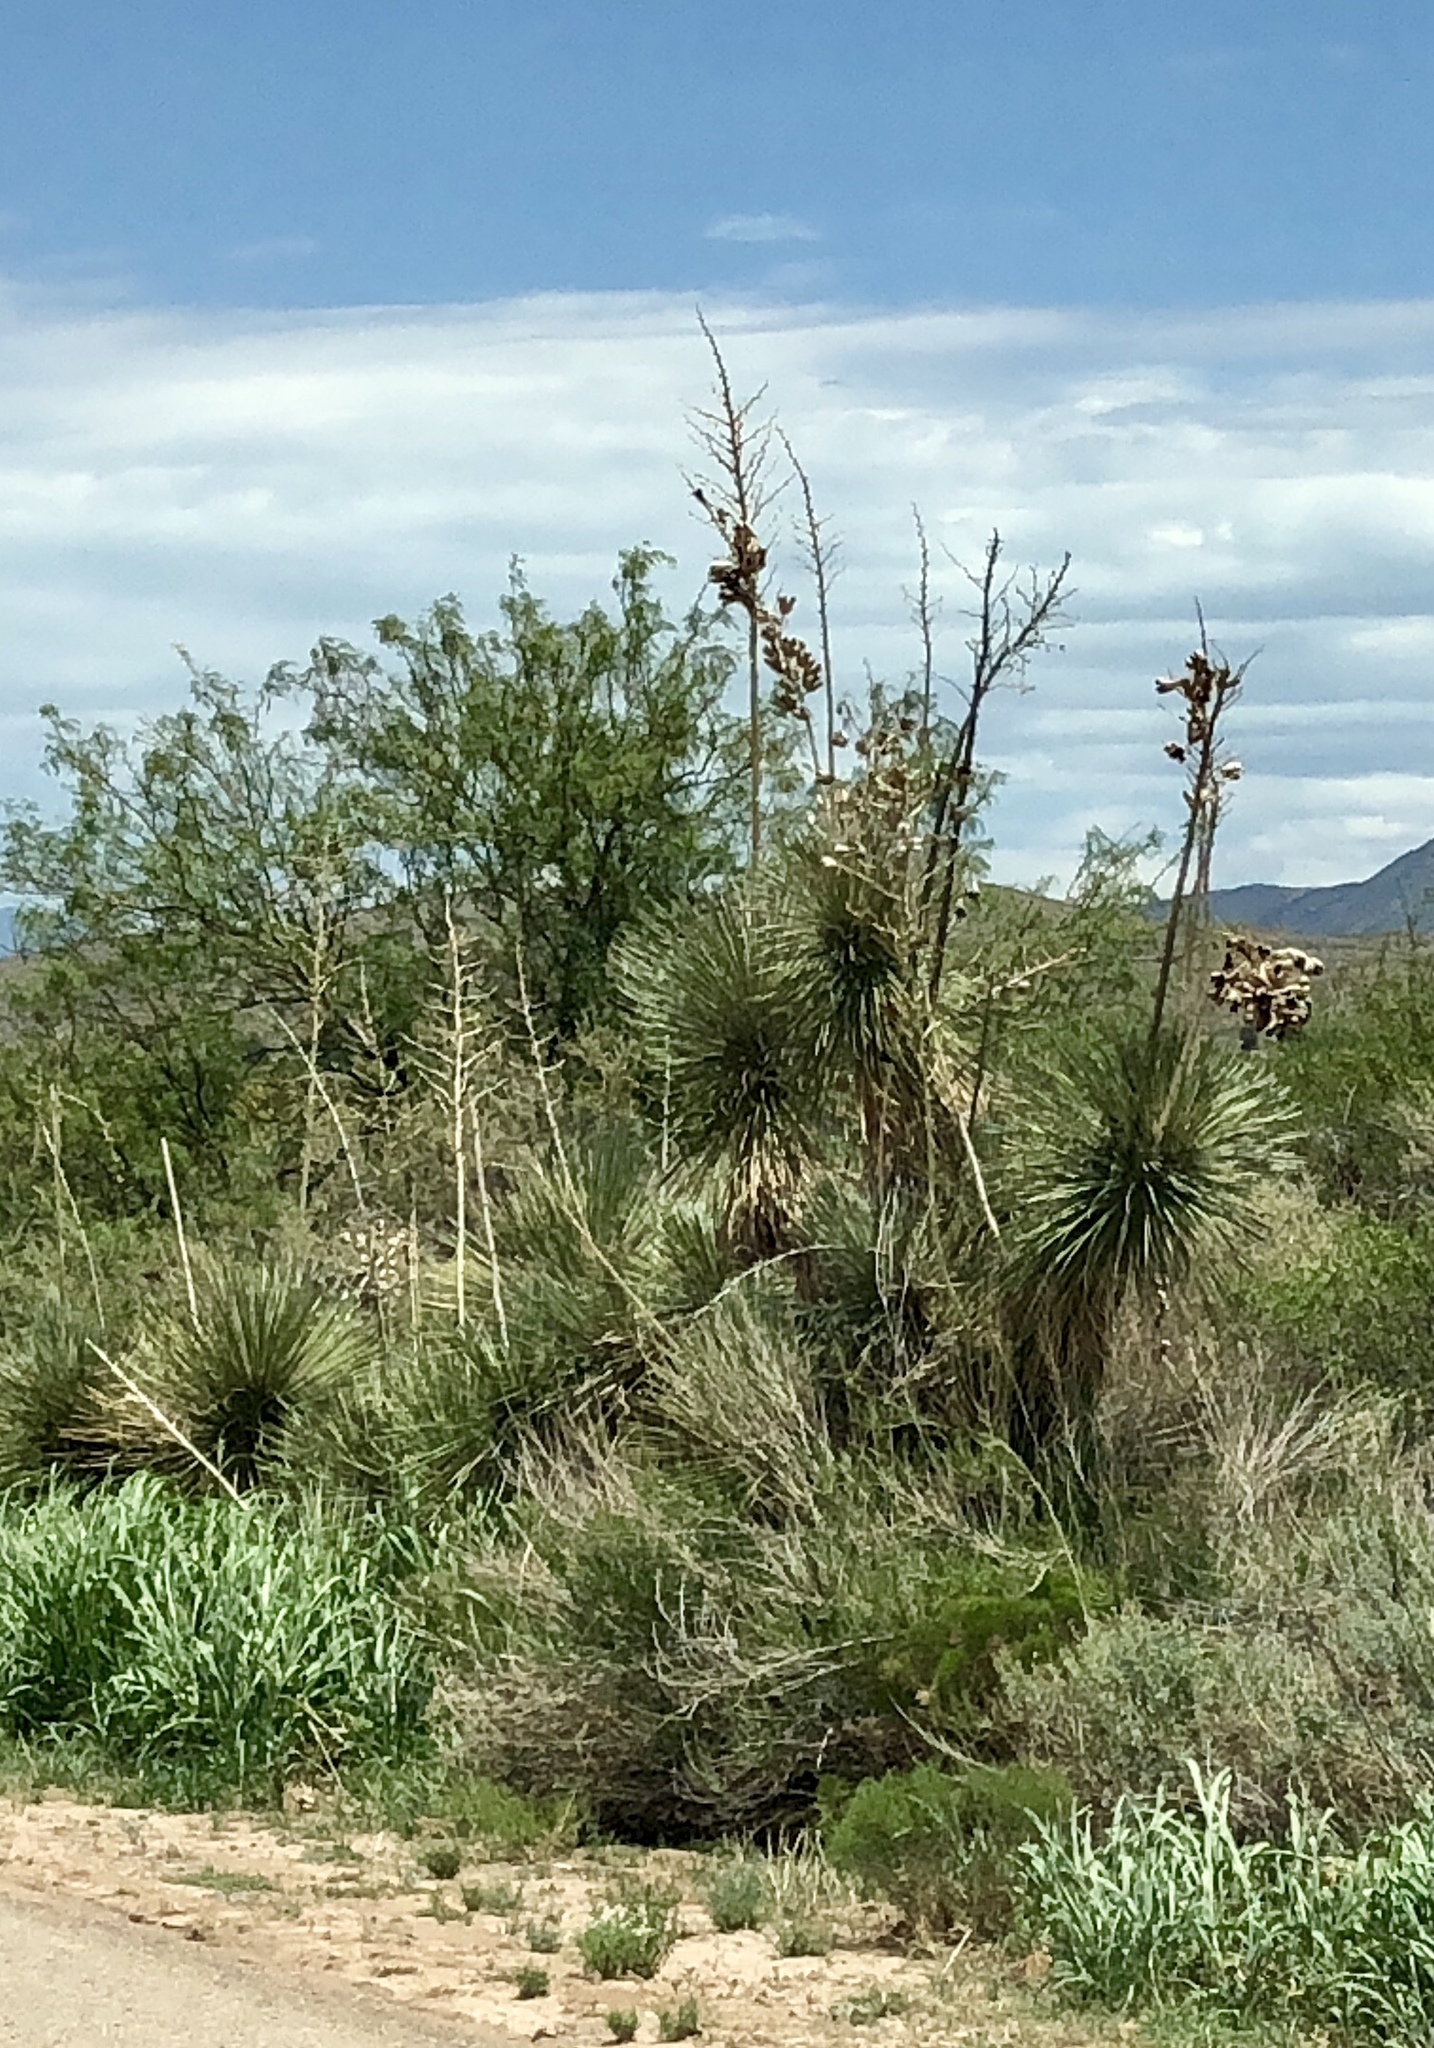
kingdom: Plantae
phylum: Tracheophyta
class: Liliopsida
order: Asparagales
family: Asparagaceae
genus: Yucca
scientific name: Yucca elata
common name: Palmella
